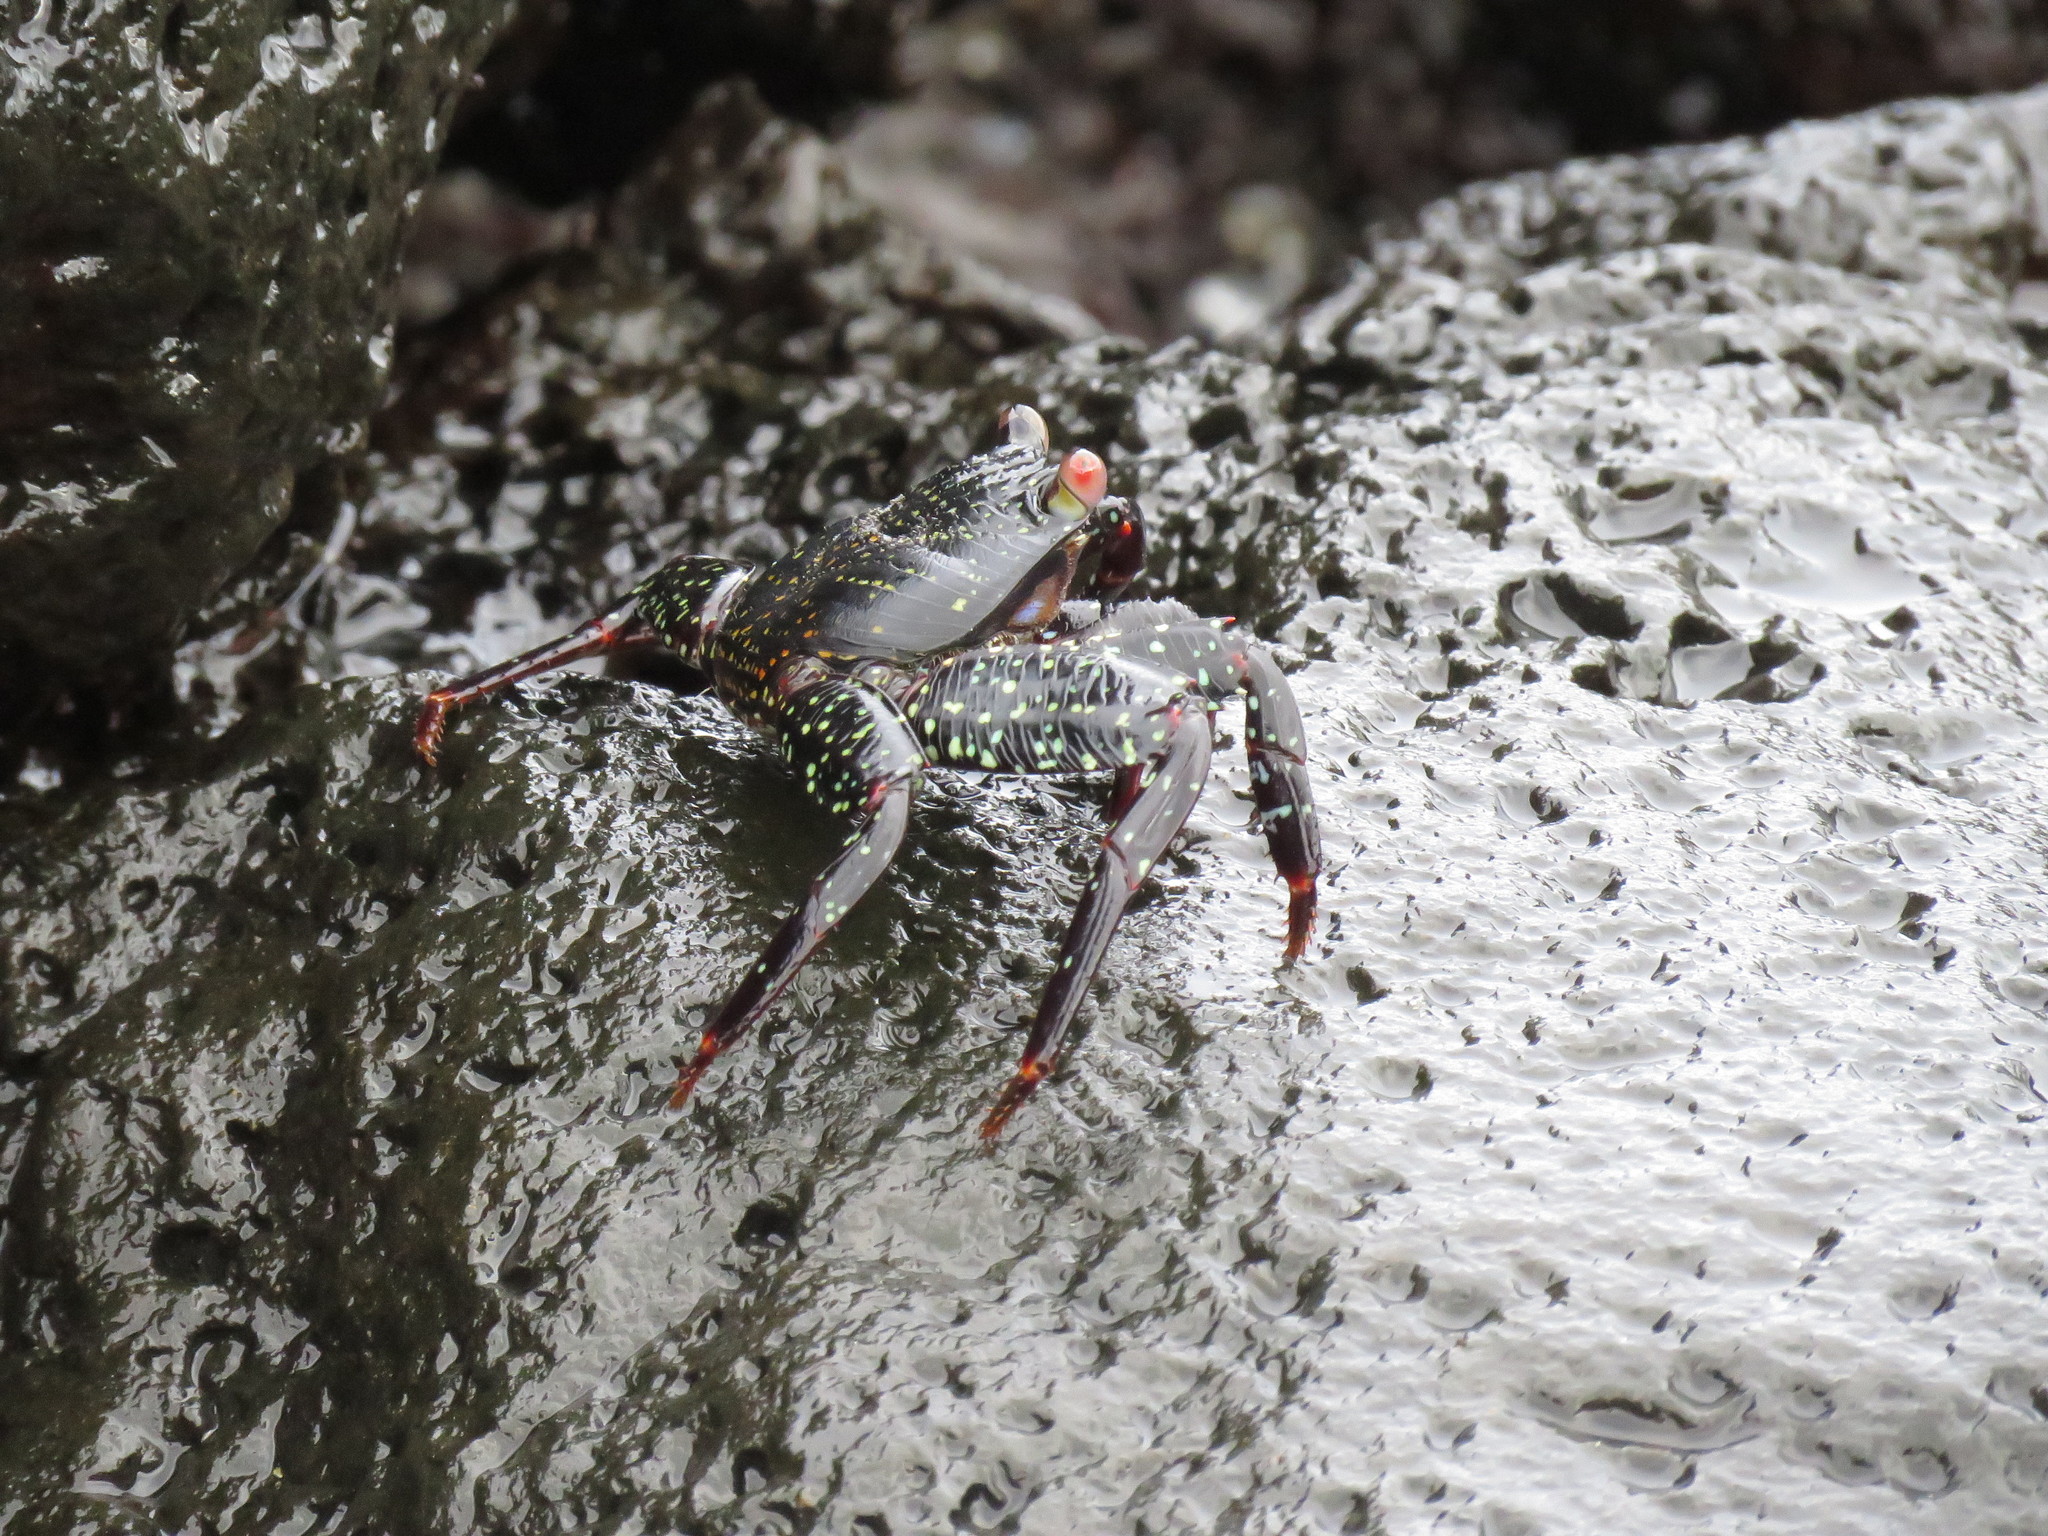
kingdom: Animalia
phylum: Arthropoda
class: Malacostraca
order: Decapoda
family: Grapsidae
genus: Grapsus
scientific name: Grapsus grapsus
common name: Sally lightfoot
